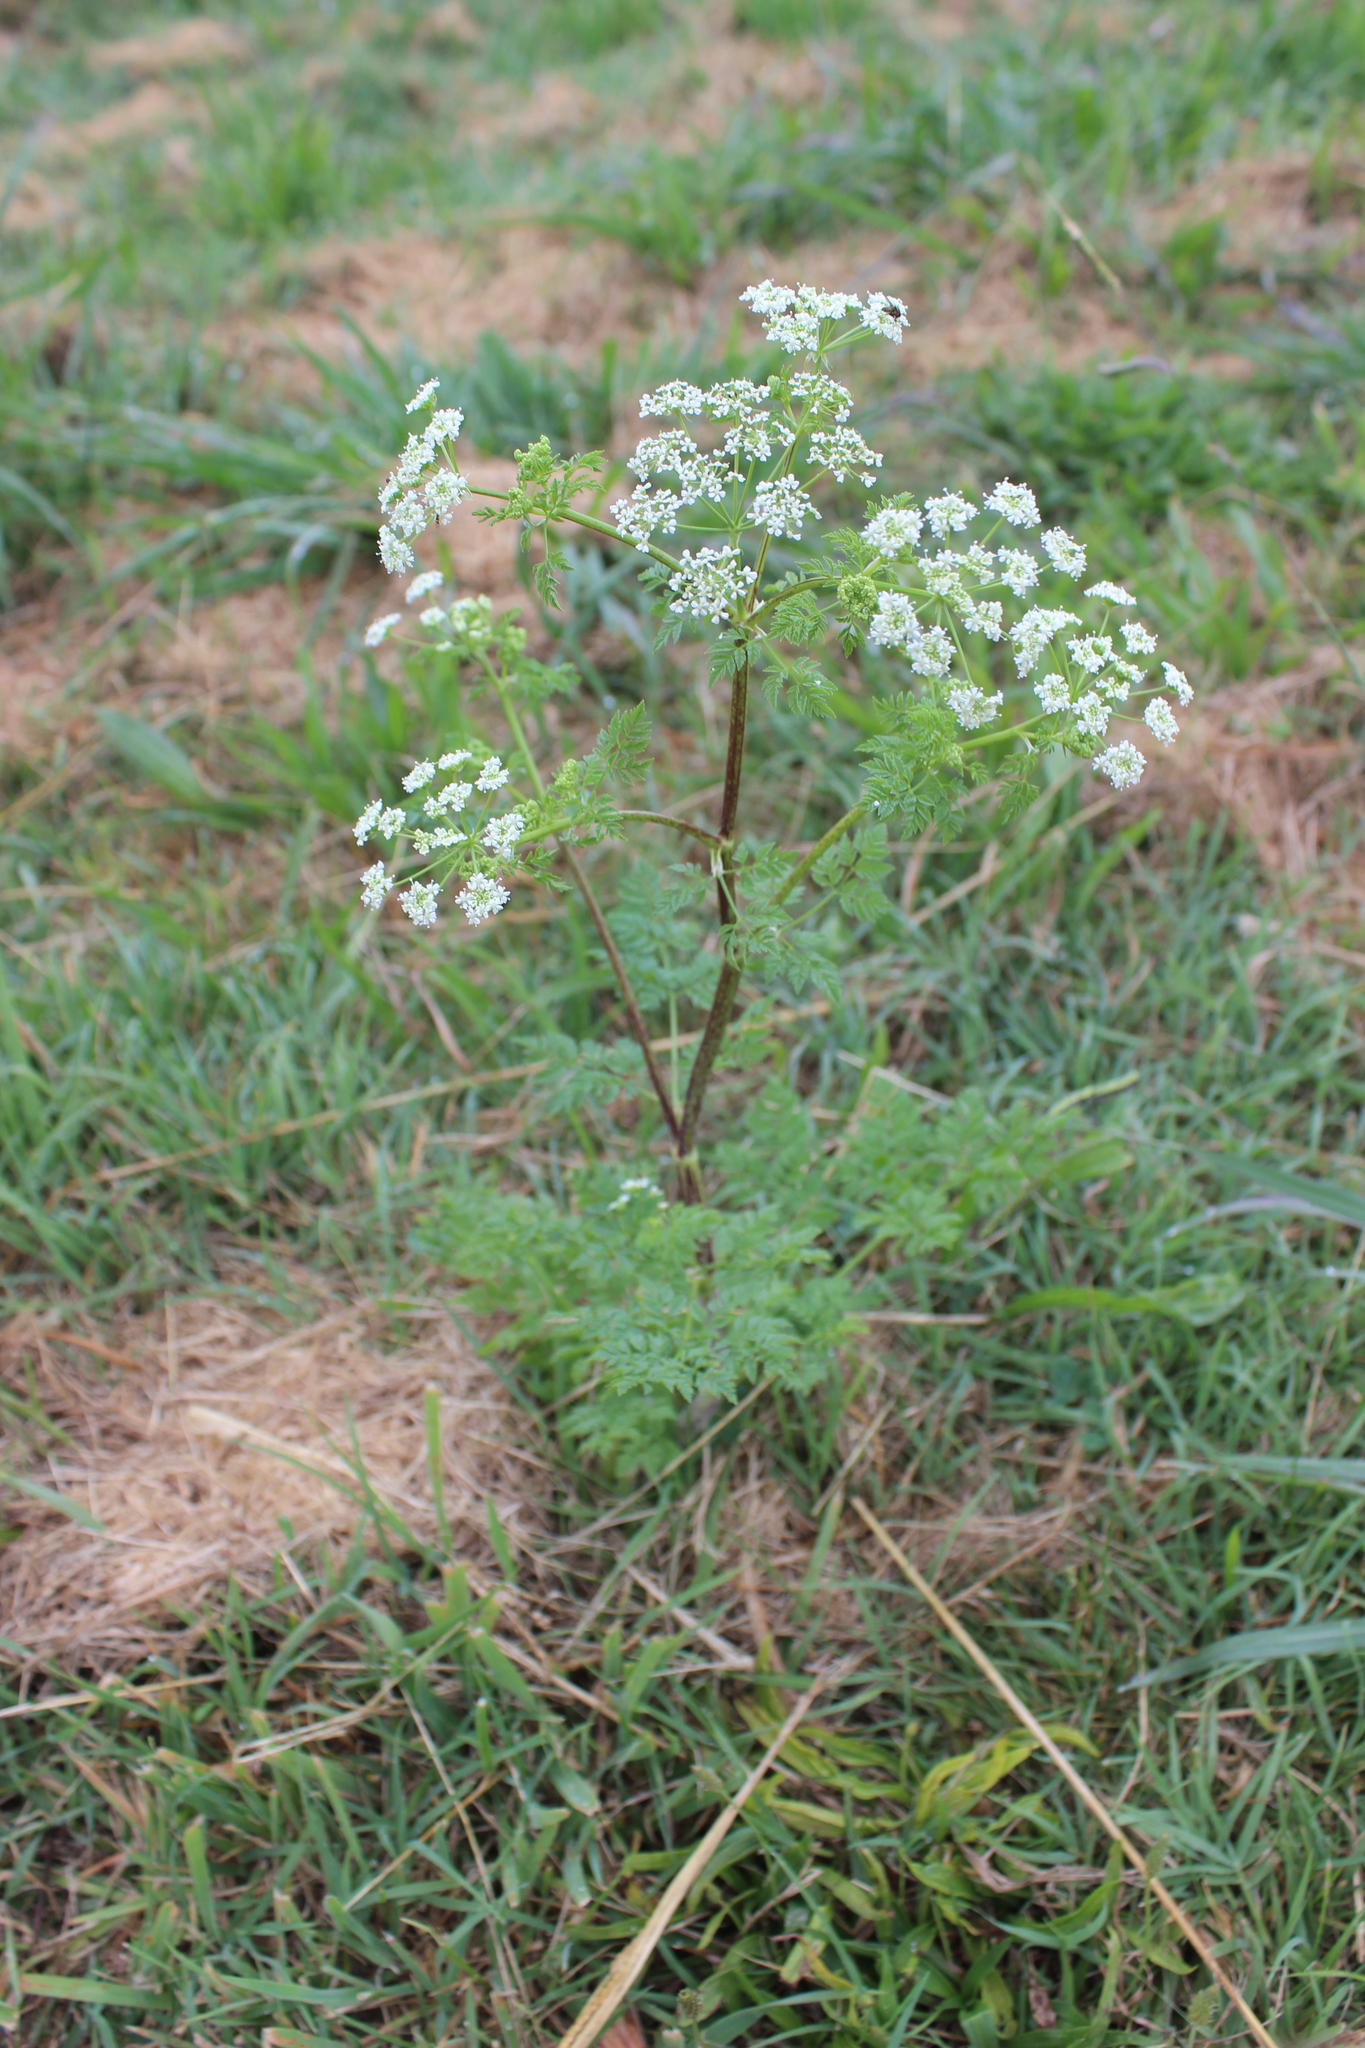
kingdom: Plantae
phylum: Tracheophyta
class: Magnoliopsida
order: Apiales
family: Apiaceae
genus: Conium
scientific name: Conium maculatum
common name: Hemlock
